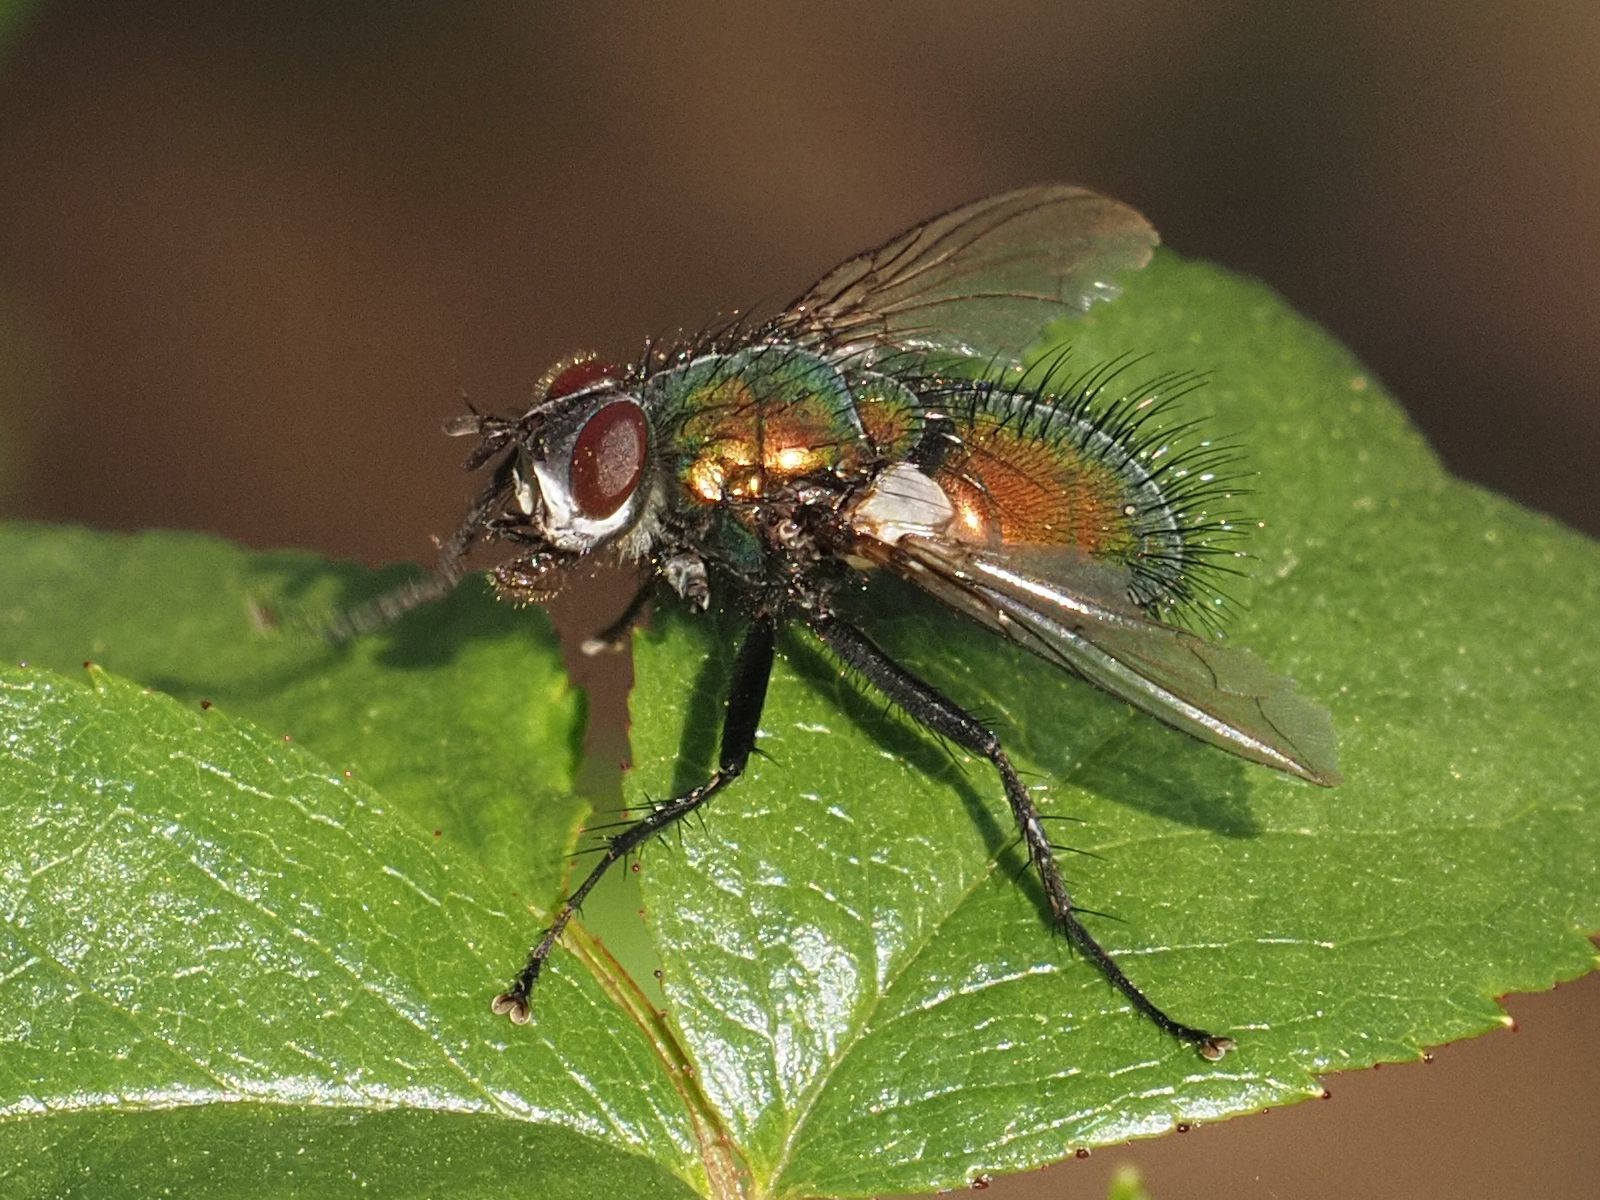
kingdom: Animalia
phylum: Arthropoda
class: Insecta
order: Diptera
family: Tachinidae
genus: Gymnocheta
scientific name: Gymnocheta viridis
